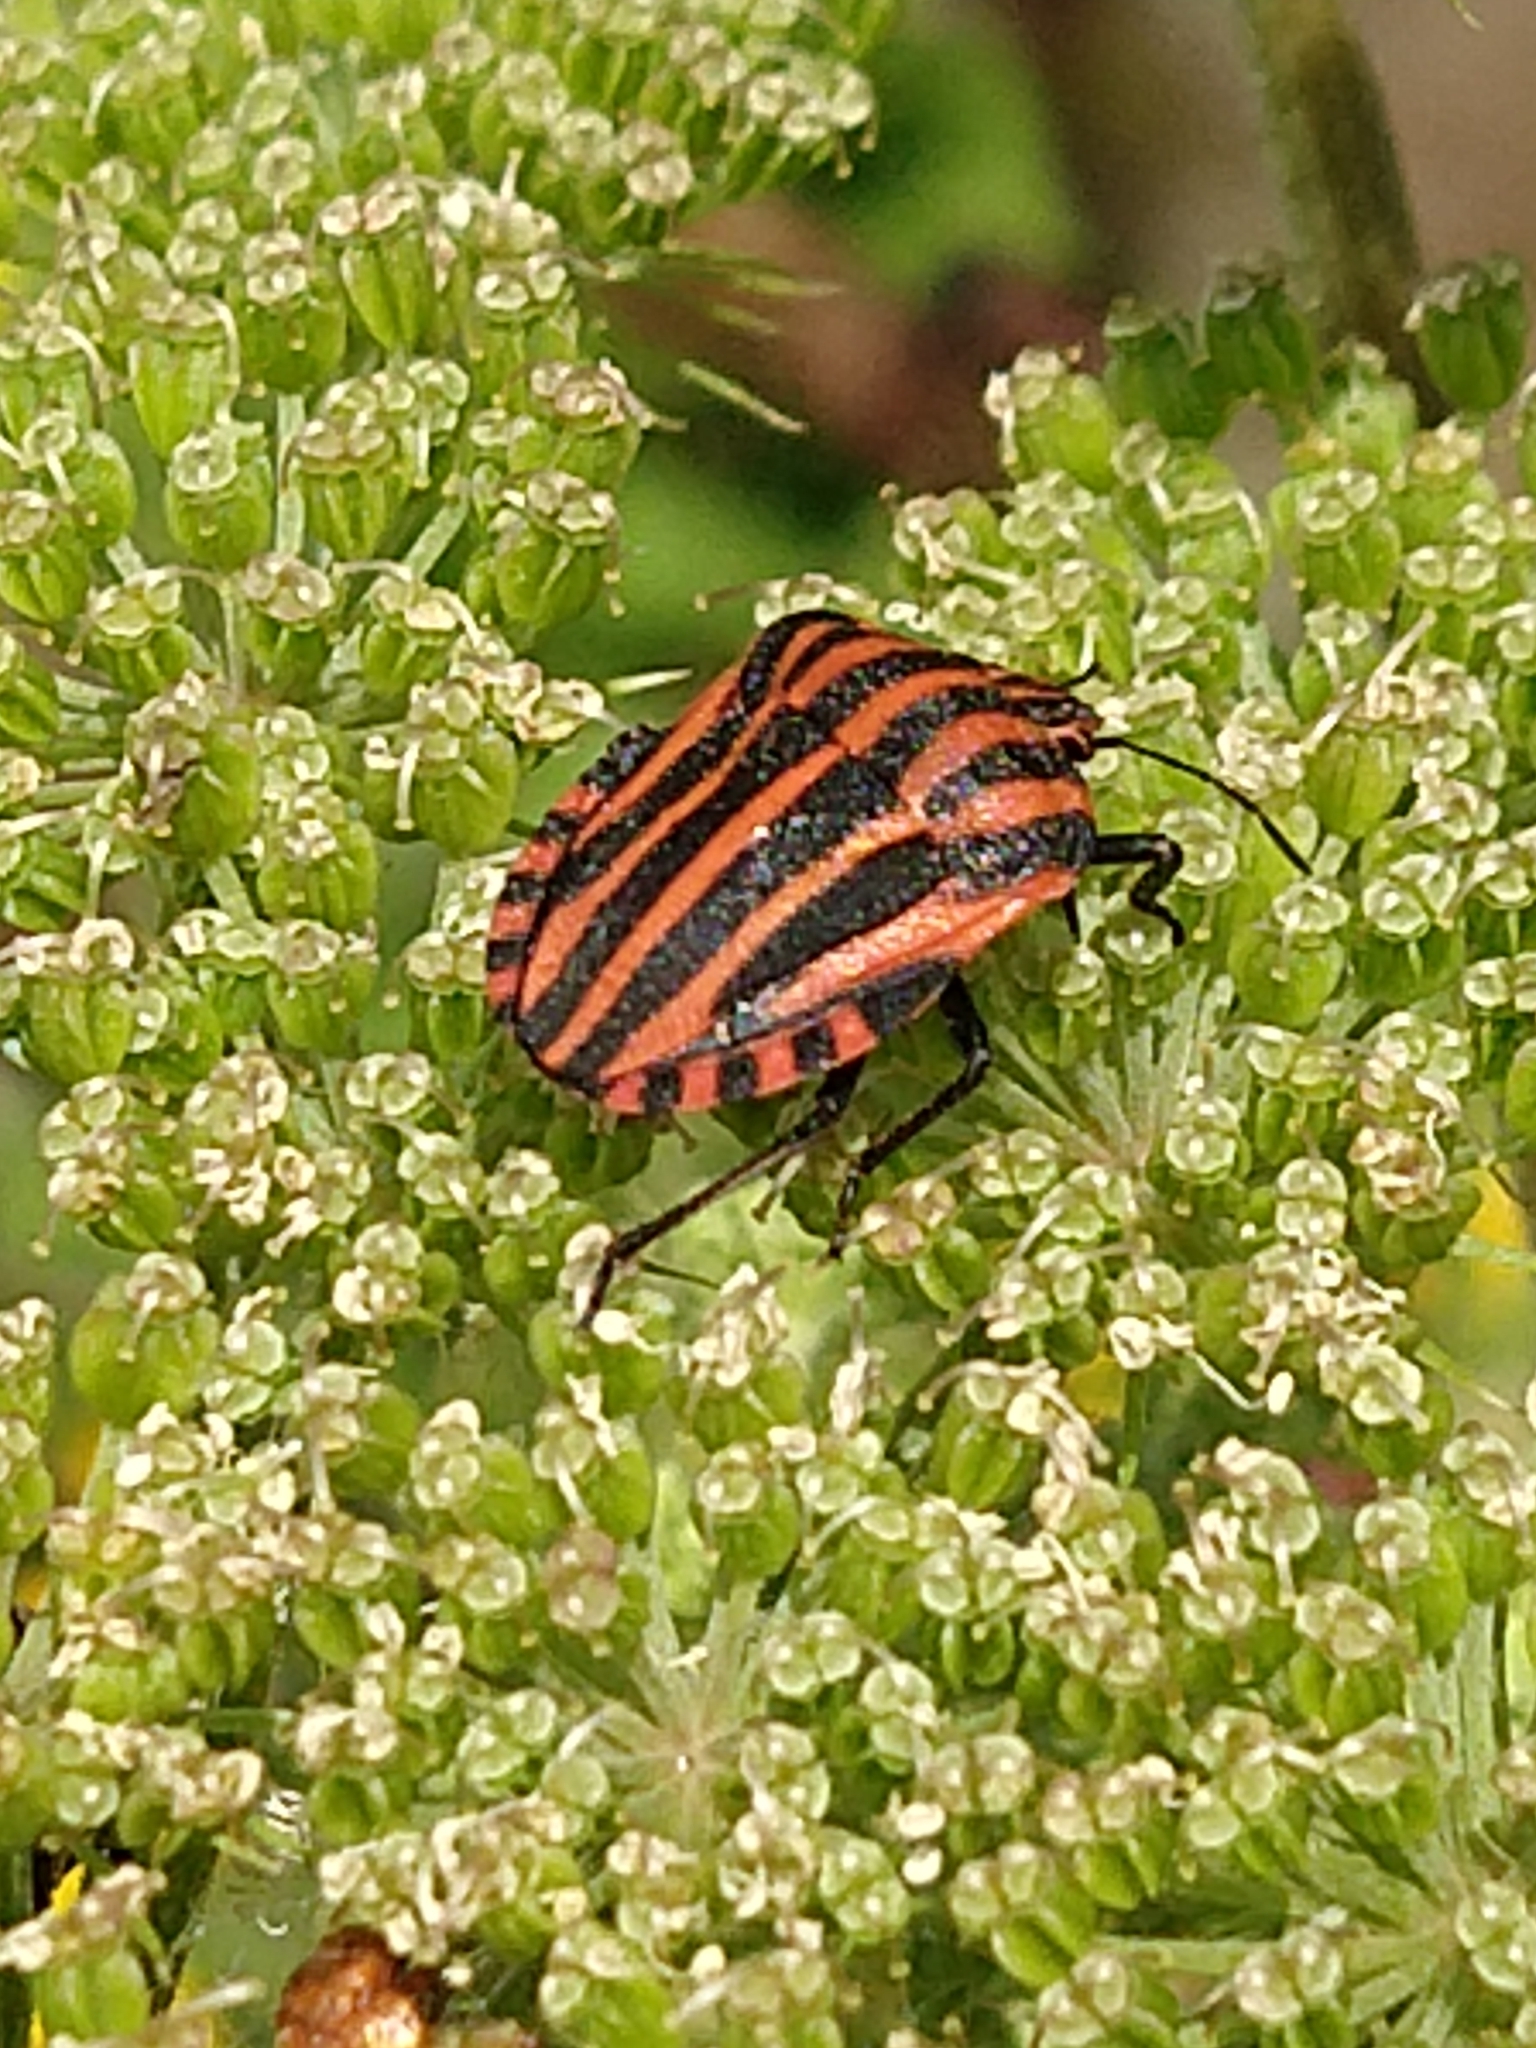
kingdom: Animalia
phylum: Arthropoda
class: Insecta
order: Hemiptera
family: Pentatomidae
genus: Graphosoma
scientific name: Graphosoma italicum
